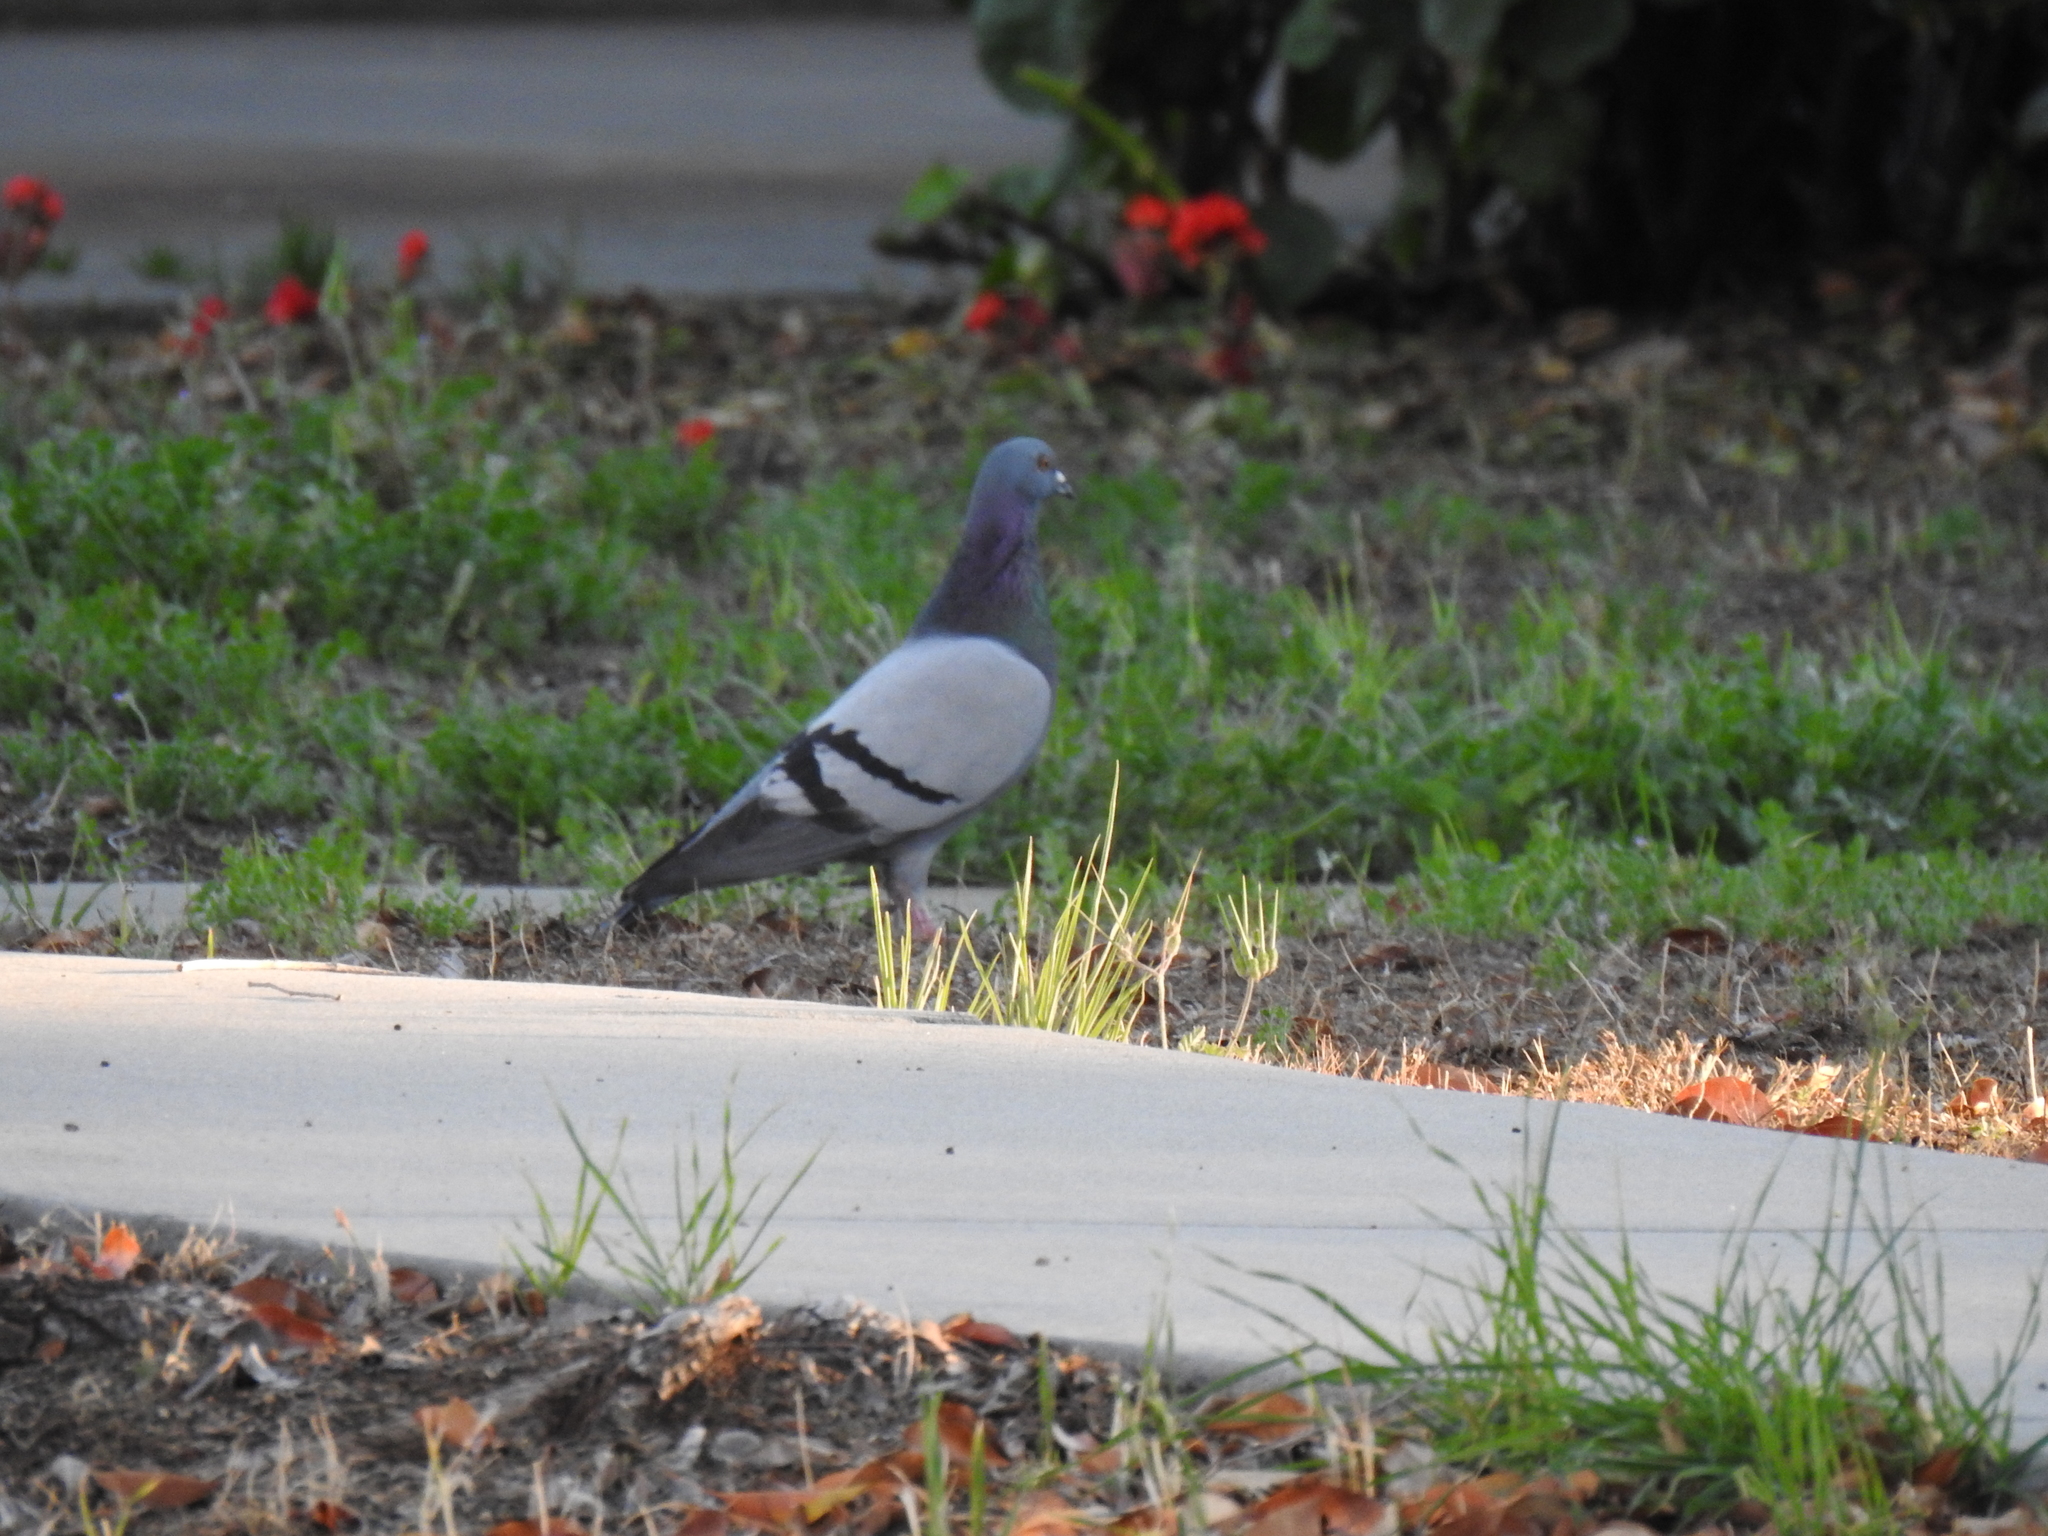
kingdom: Animalia
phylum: Chordata
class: Aves
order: Columbiformes
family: Columbidae
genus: Columba
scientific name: Columba livia
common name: Rock pigeon
